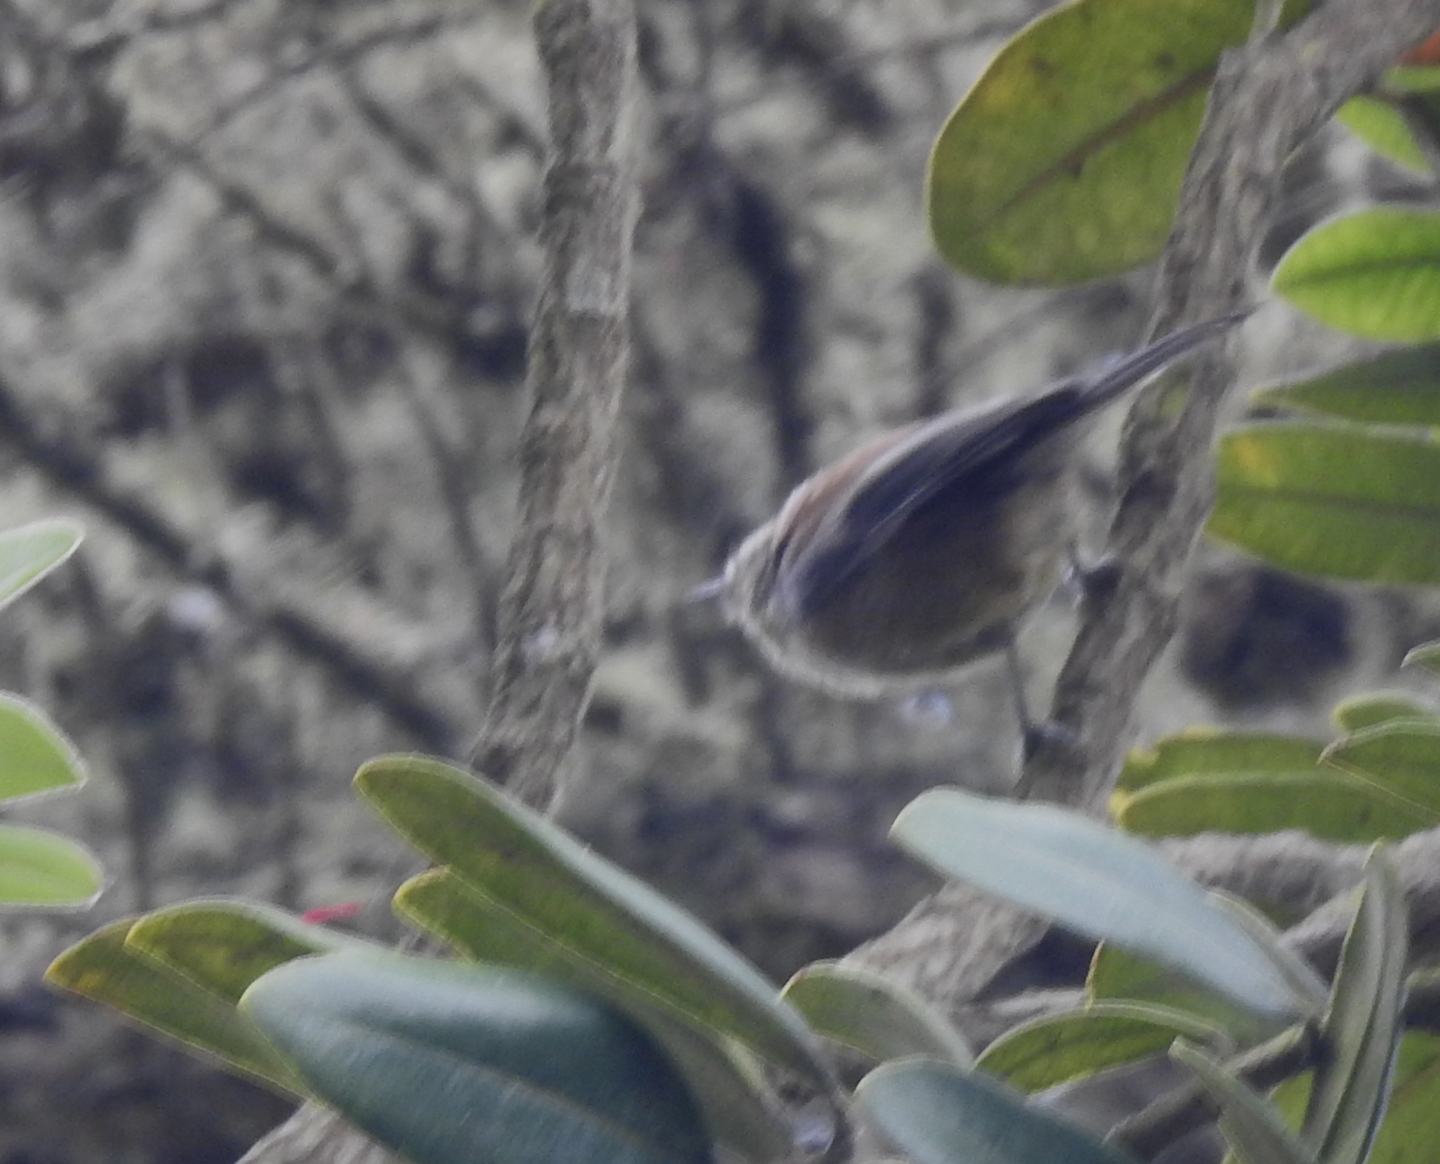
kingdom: Animalia
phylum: Chordata
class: Aves
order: Passeriformes
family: Paridae
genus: Poecile
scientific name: Poecile rufescens
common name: Chestnut-backed chickadee
